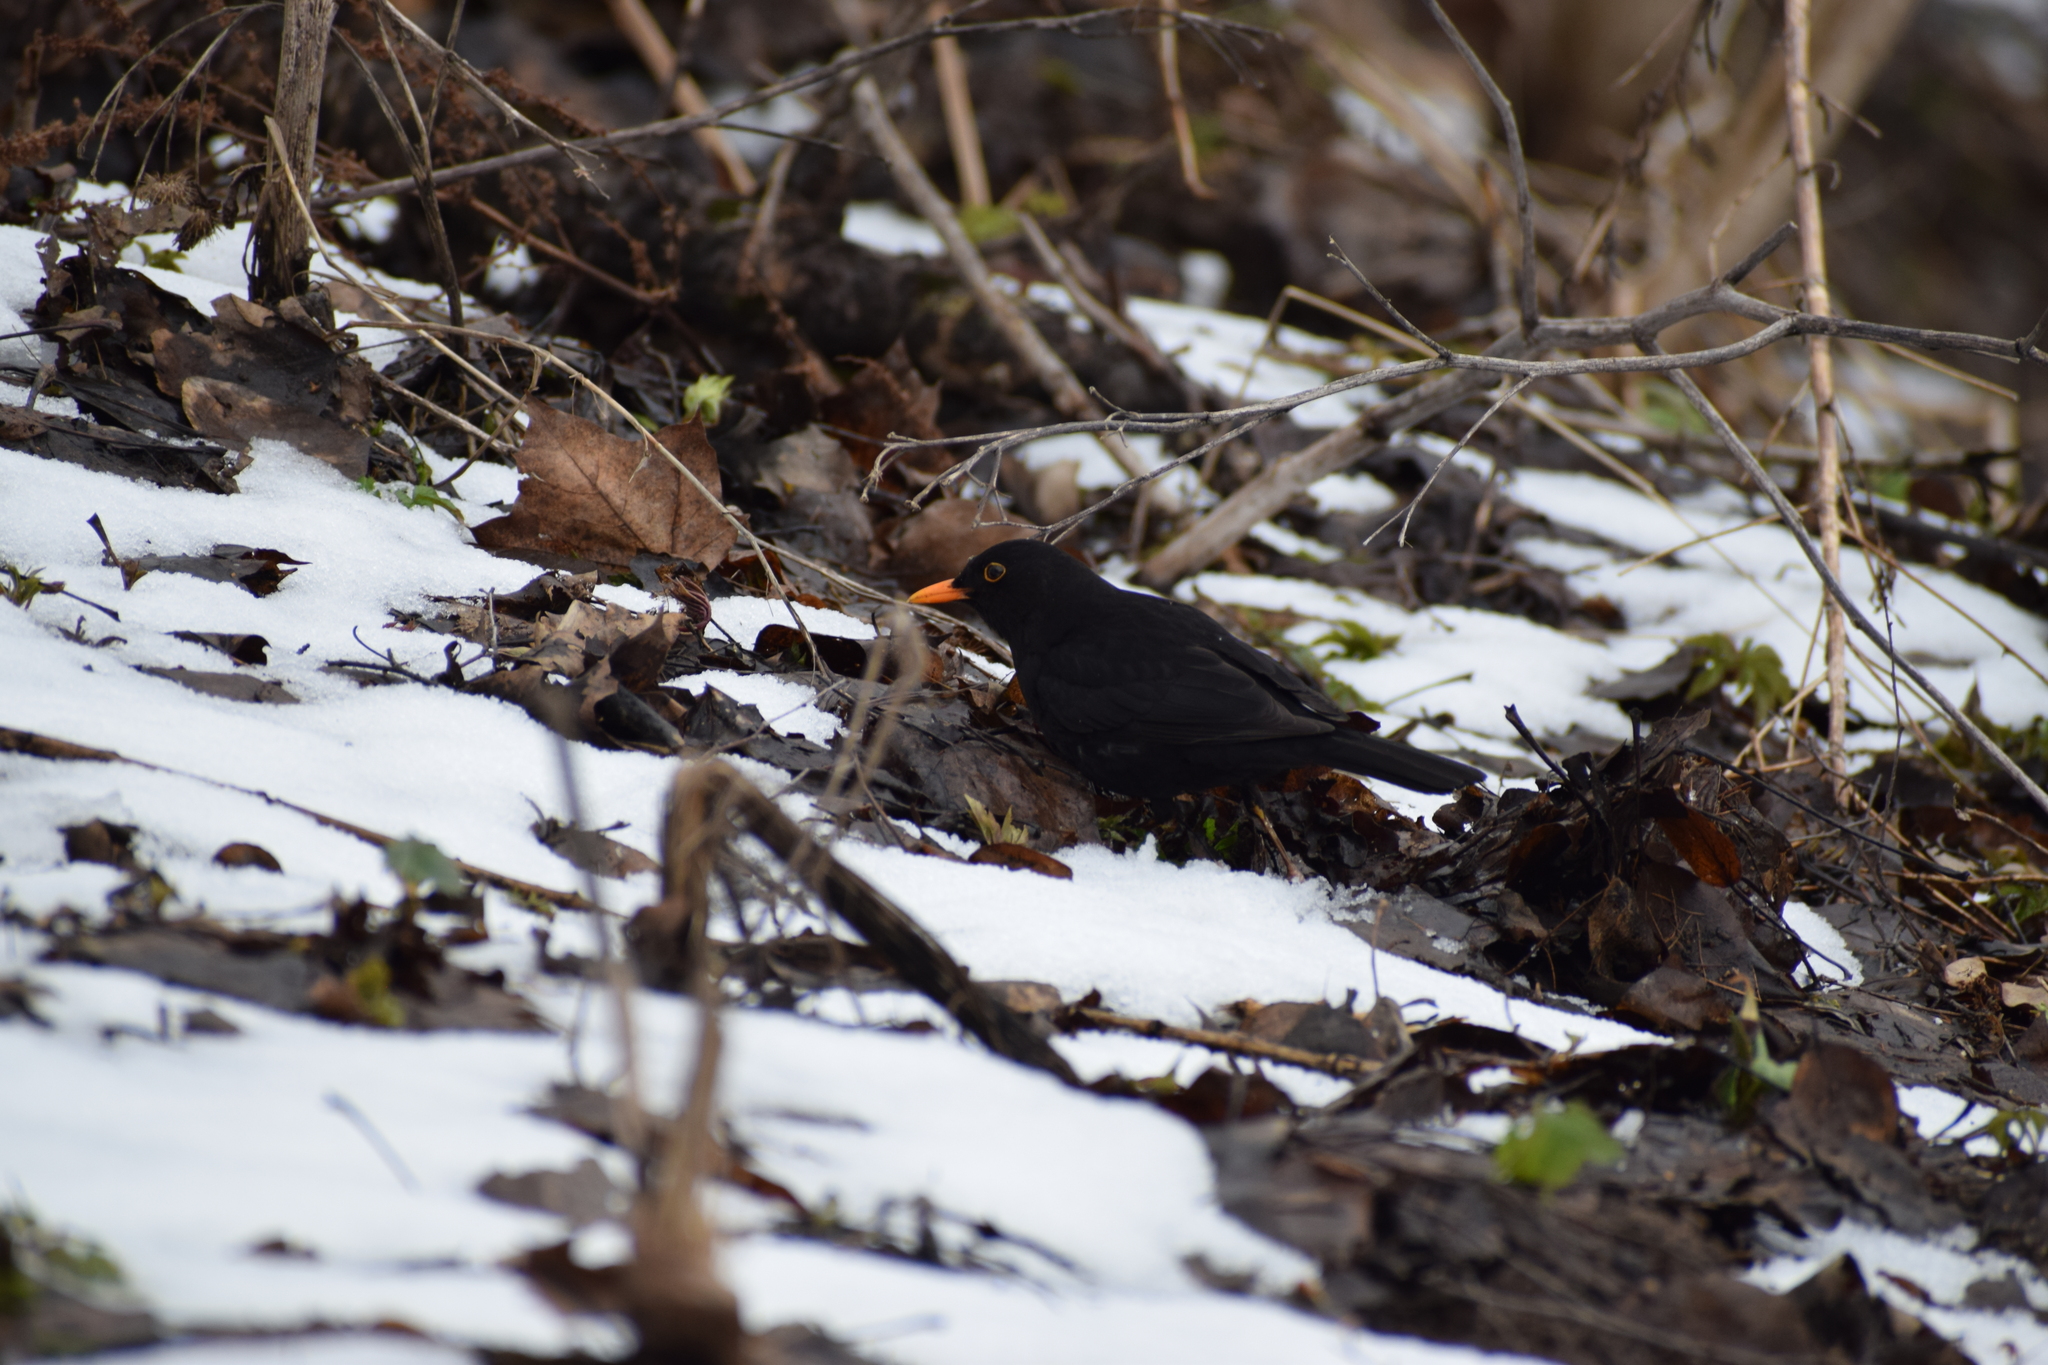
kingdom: Animalia
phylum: Chordata
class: Aves
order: Passeriformes
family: Turdidae
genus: Turdus
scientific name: Turdus merula
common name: Common blackbird
